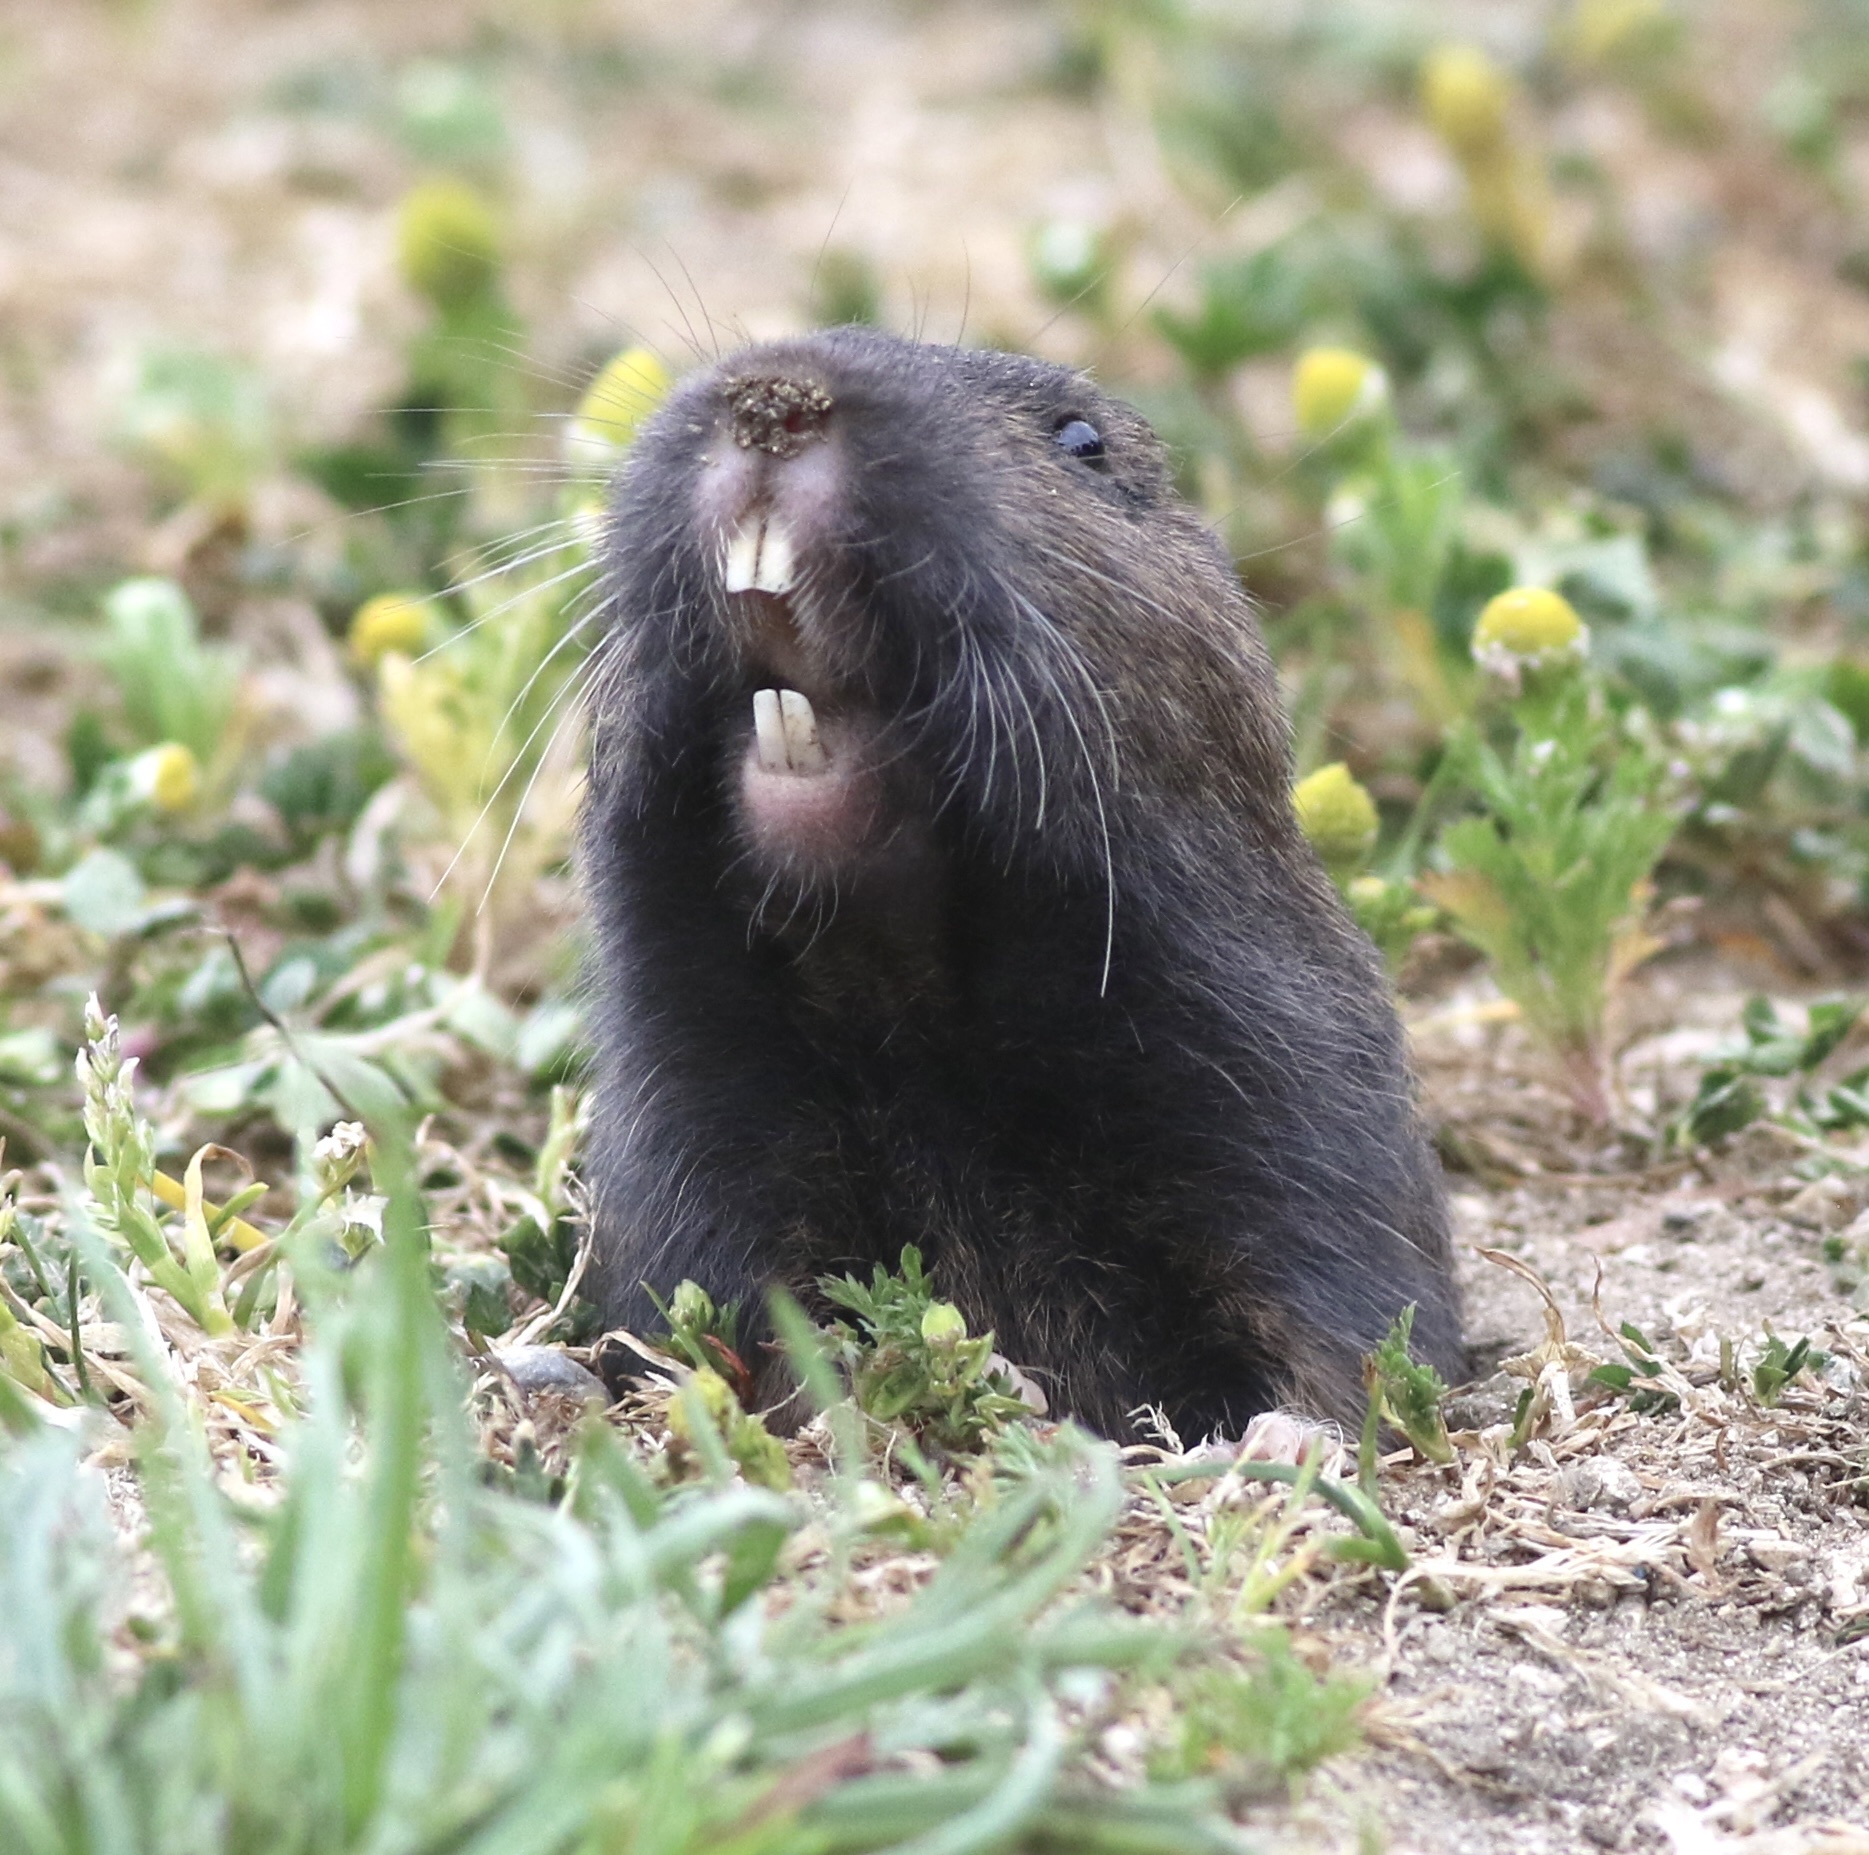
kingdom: Animalia
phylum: Chordata
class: Mammalia
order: Rodentia
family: Geomyidae
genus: Thomomys
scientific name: Thomomys bottae
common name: Botta's pocket gopher
